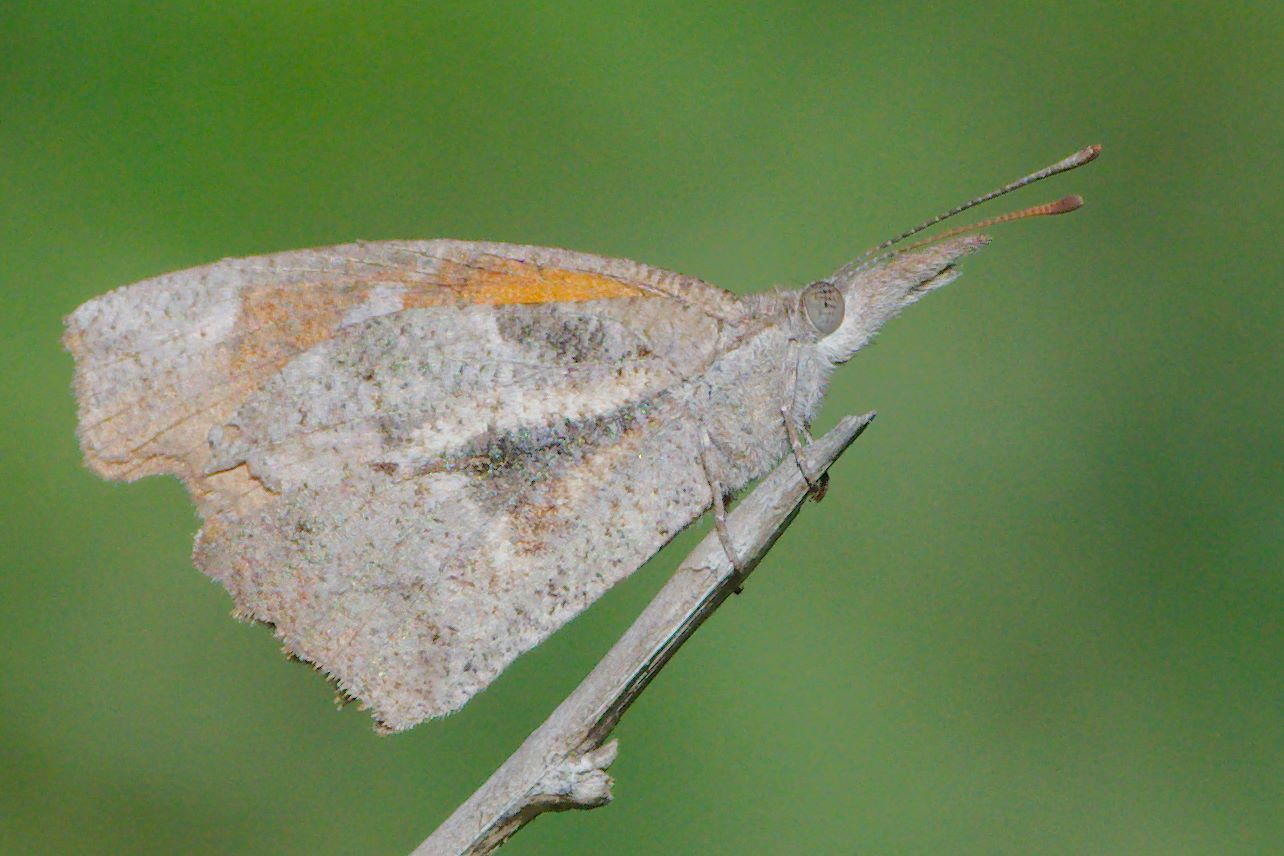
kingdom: Animalia
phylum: Arthropoda
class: Insecta
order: Lepidoptera
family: Nymphalidae
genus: Libytheana
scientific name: Libytheana carinenta
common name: American snout
